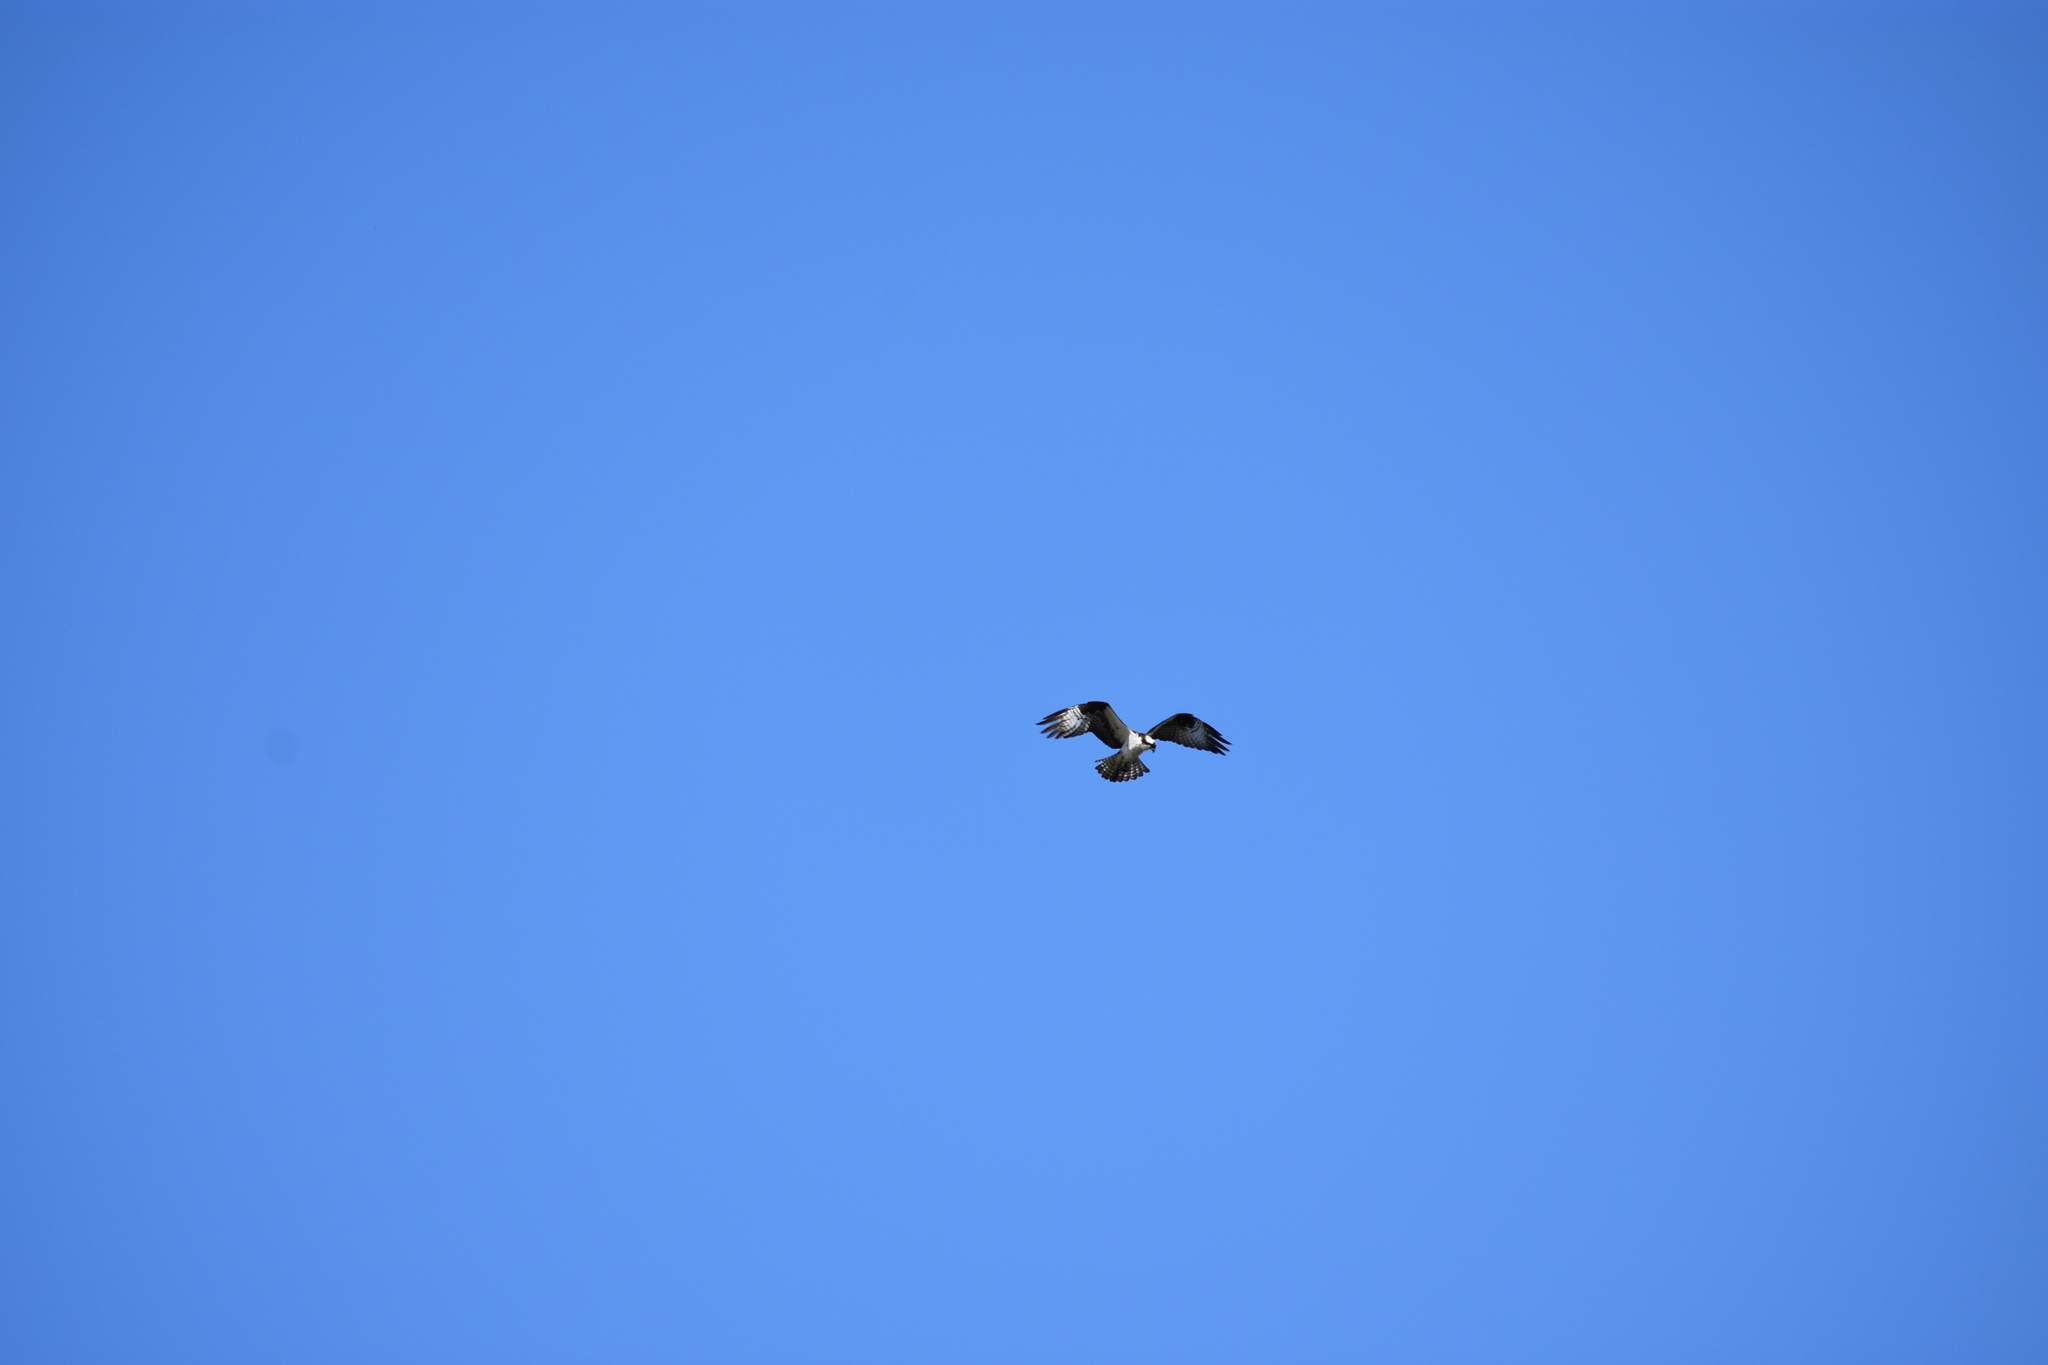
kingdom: Animalia
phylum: Chordata
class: Aves
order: Accipitriformes
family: Pandionidae
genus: Pandion
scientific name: Pandion haliaetus
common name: Osprey
